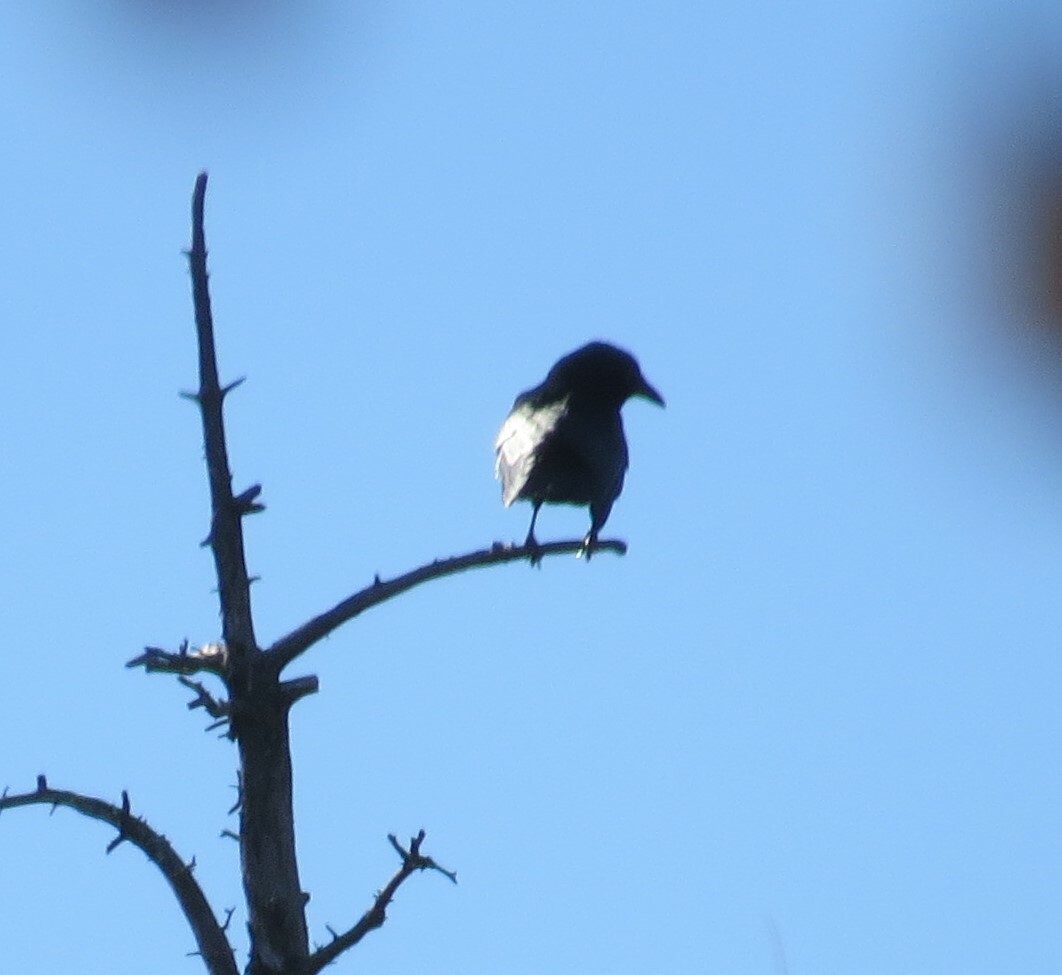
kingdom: Animalia
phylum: Chordata
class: Aves
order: Passeriformes
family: Corvidae
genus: Corvus
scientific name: Corvus brachyrhynchos
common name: American crow
